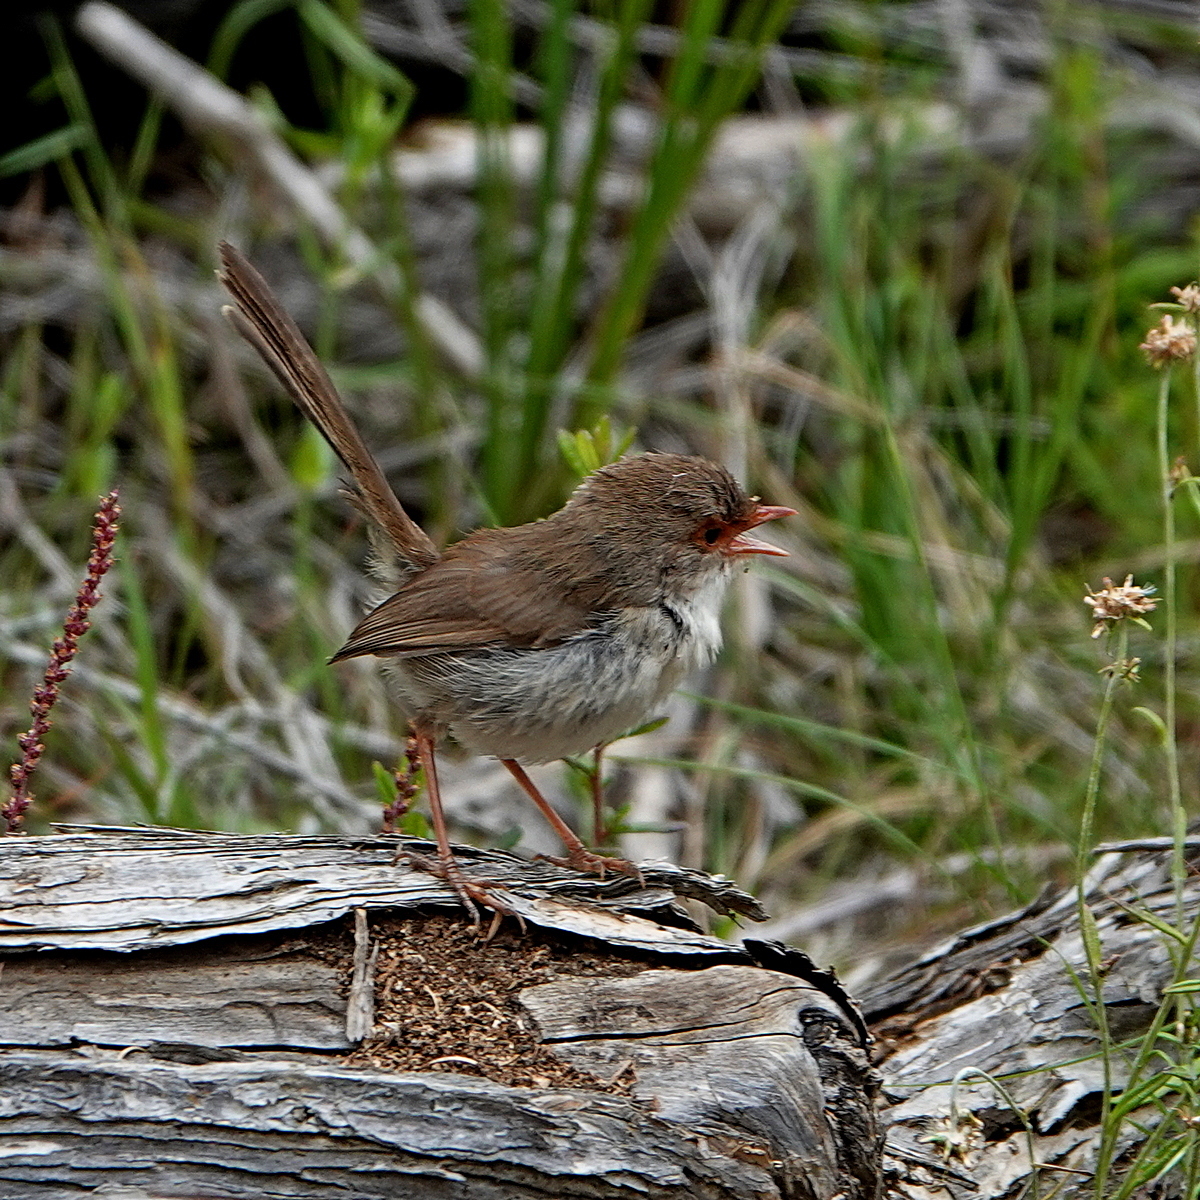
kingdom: Animalia
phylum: Chordata
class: Aves
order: Passeriformes
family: Maluridae
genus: Malurus
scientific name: Malurus cyaneus
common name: Superb fairywren
